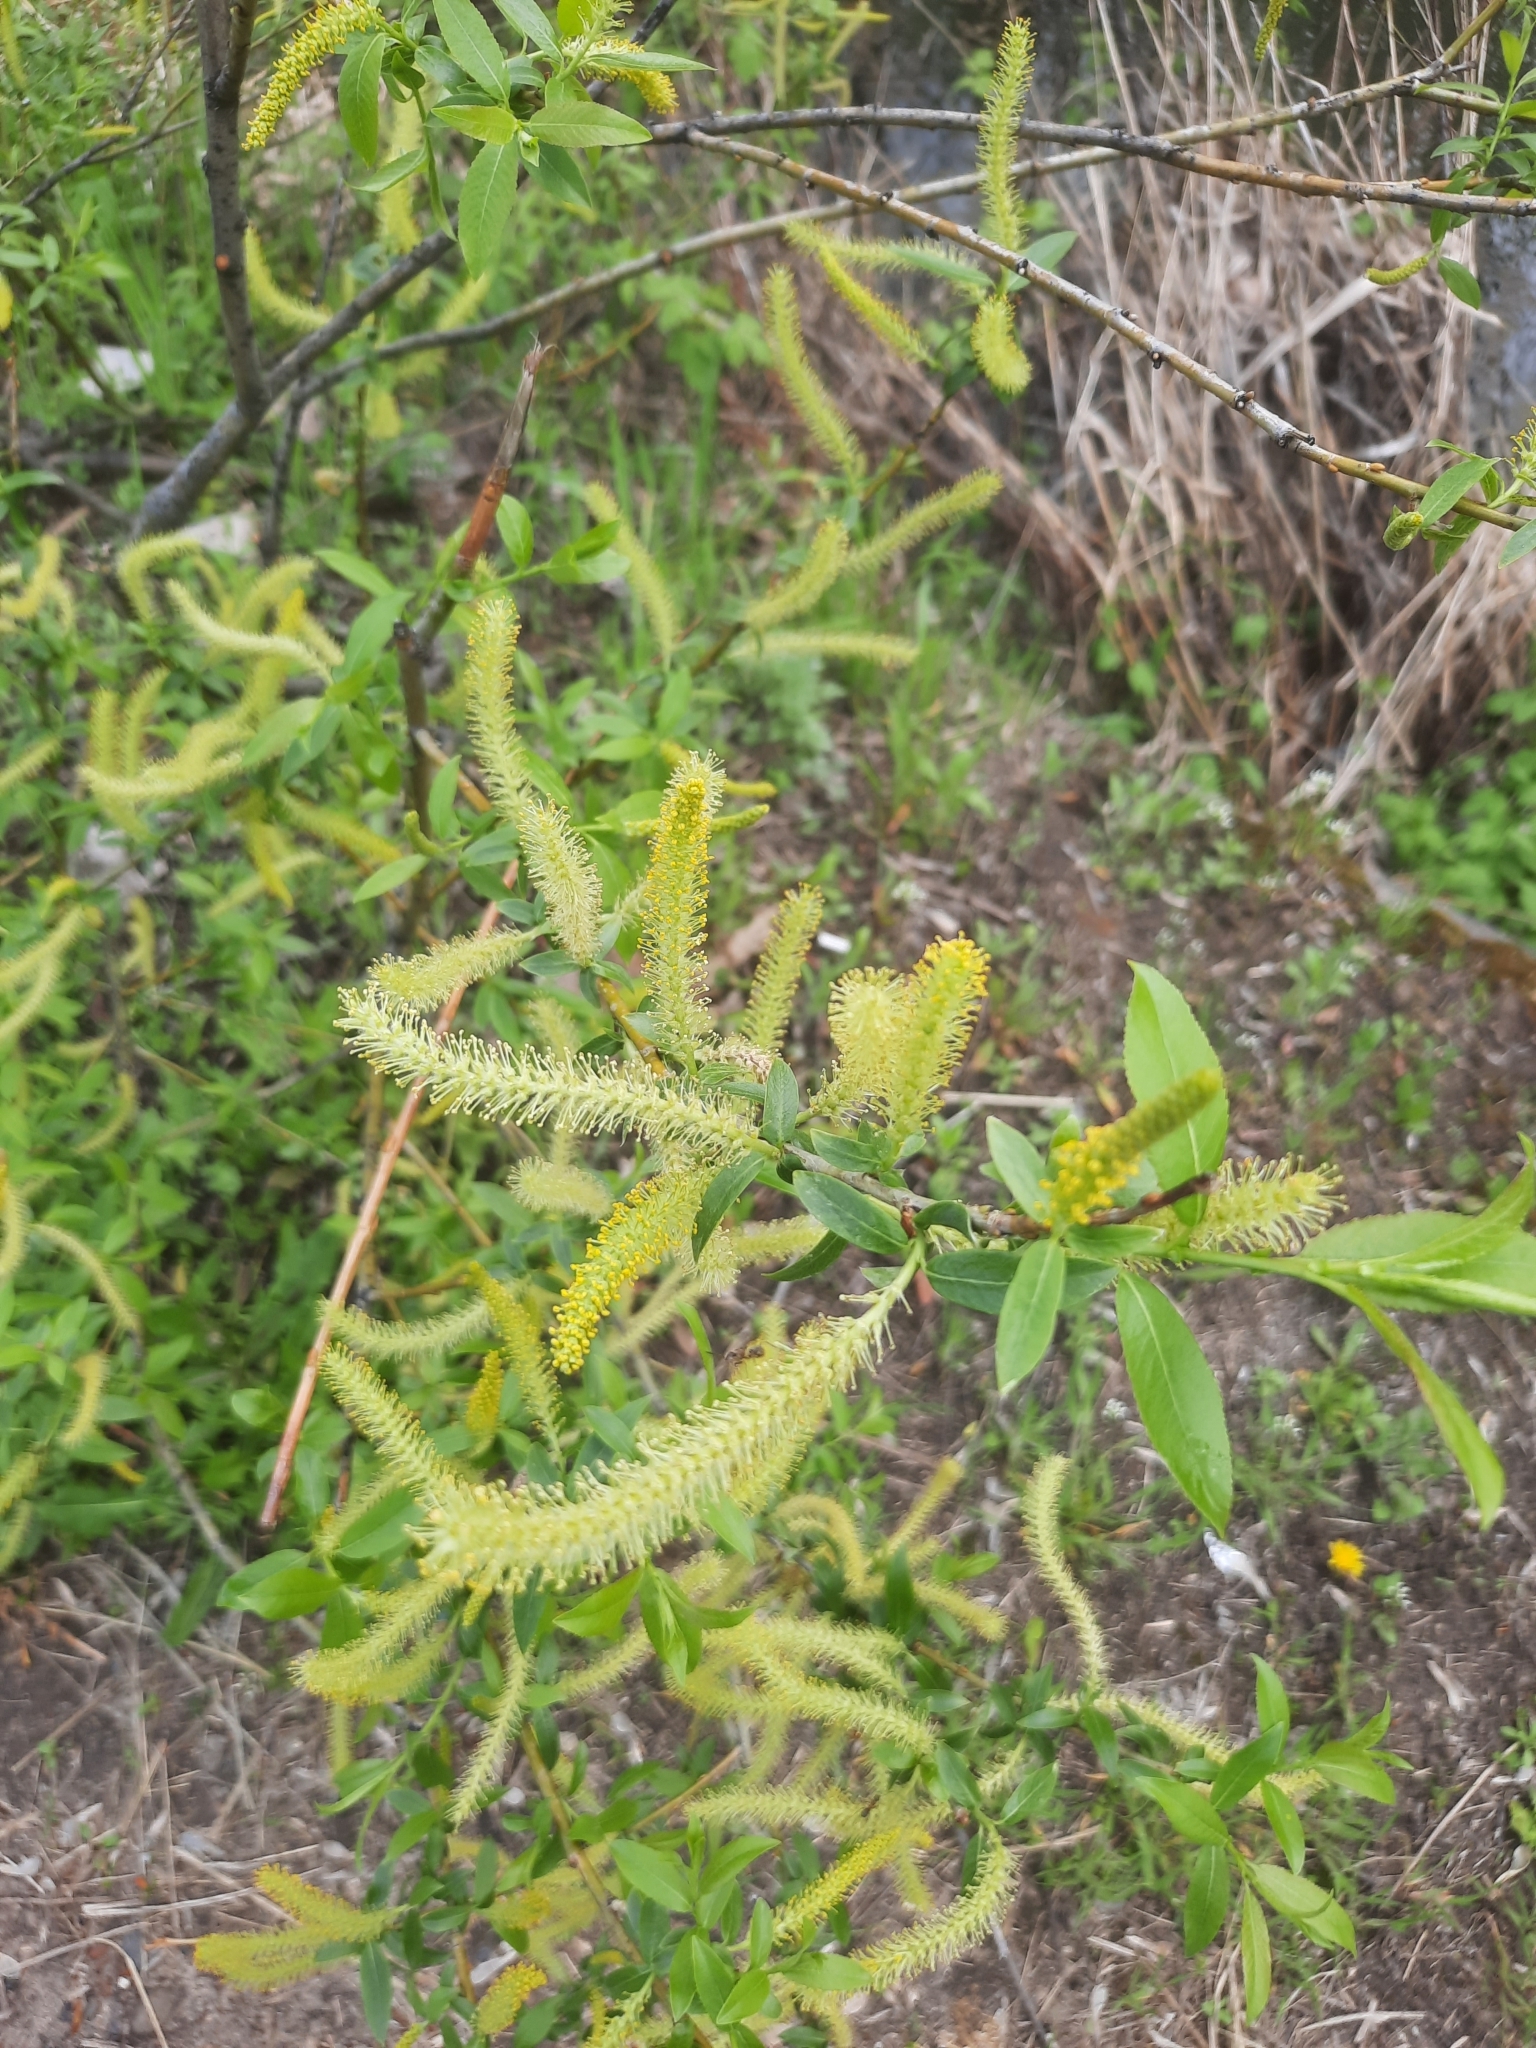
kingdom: Plantae
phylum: Tracheophyta
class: Magnoliopsida
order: Malpighiales
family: Salicaceae
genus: Salix
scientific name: Salix alba
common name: White willow
